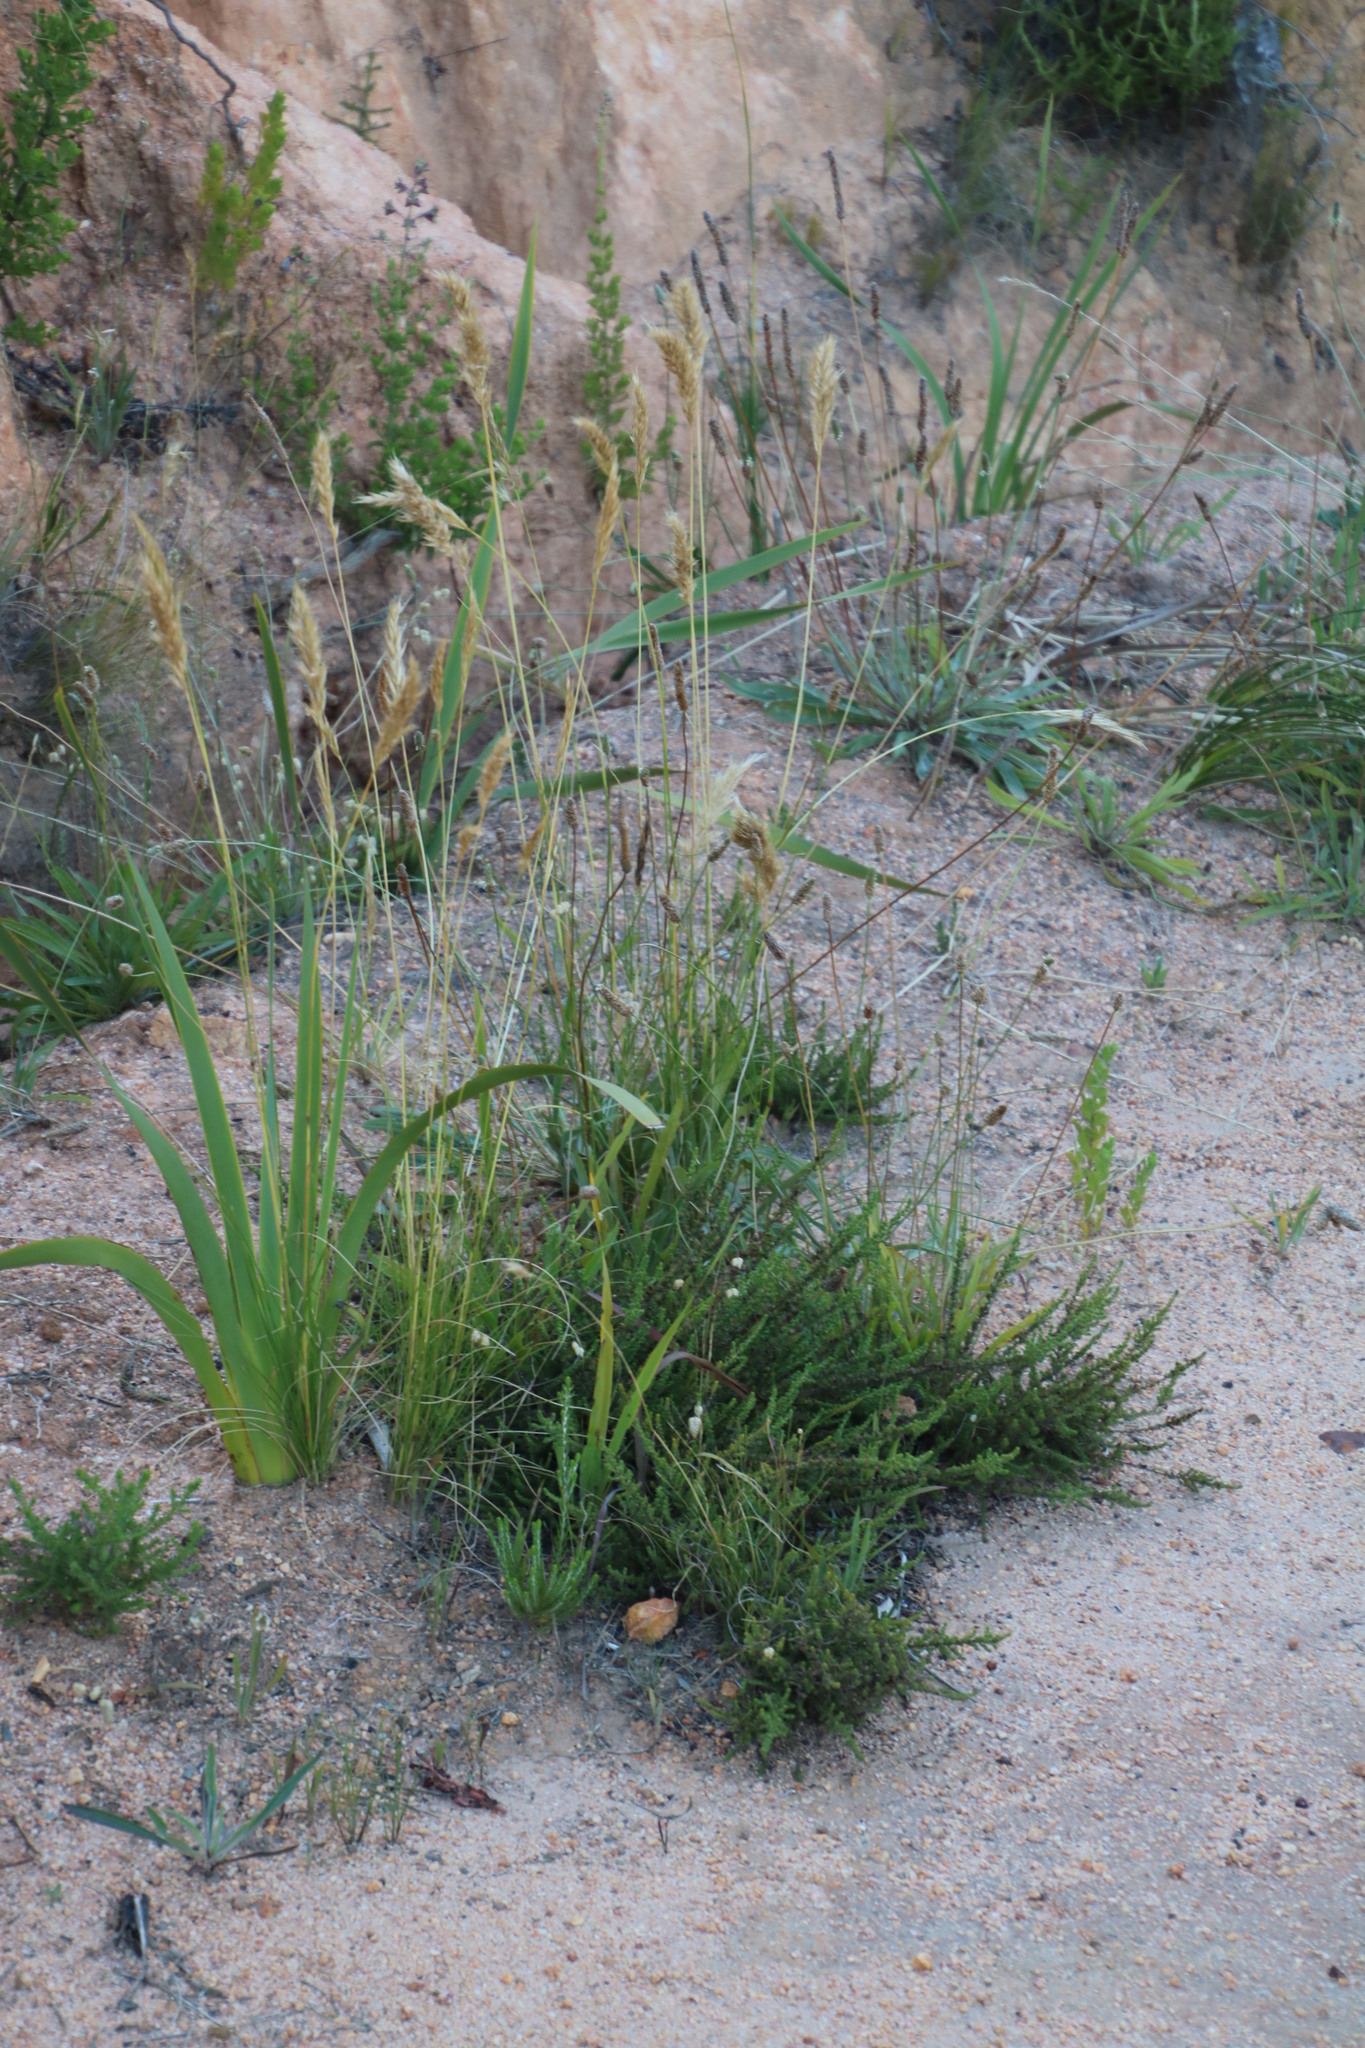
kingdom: Plantae
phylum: Tracheophyta
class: Liliopsida
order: Poales
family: Poaceae
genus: Pentameris
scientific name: Pentameris curvifolia
